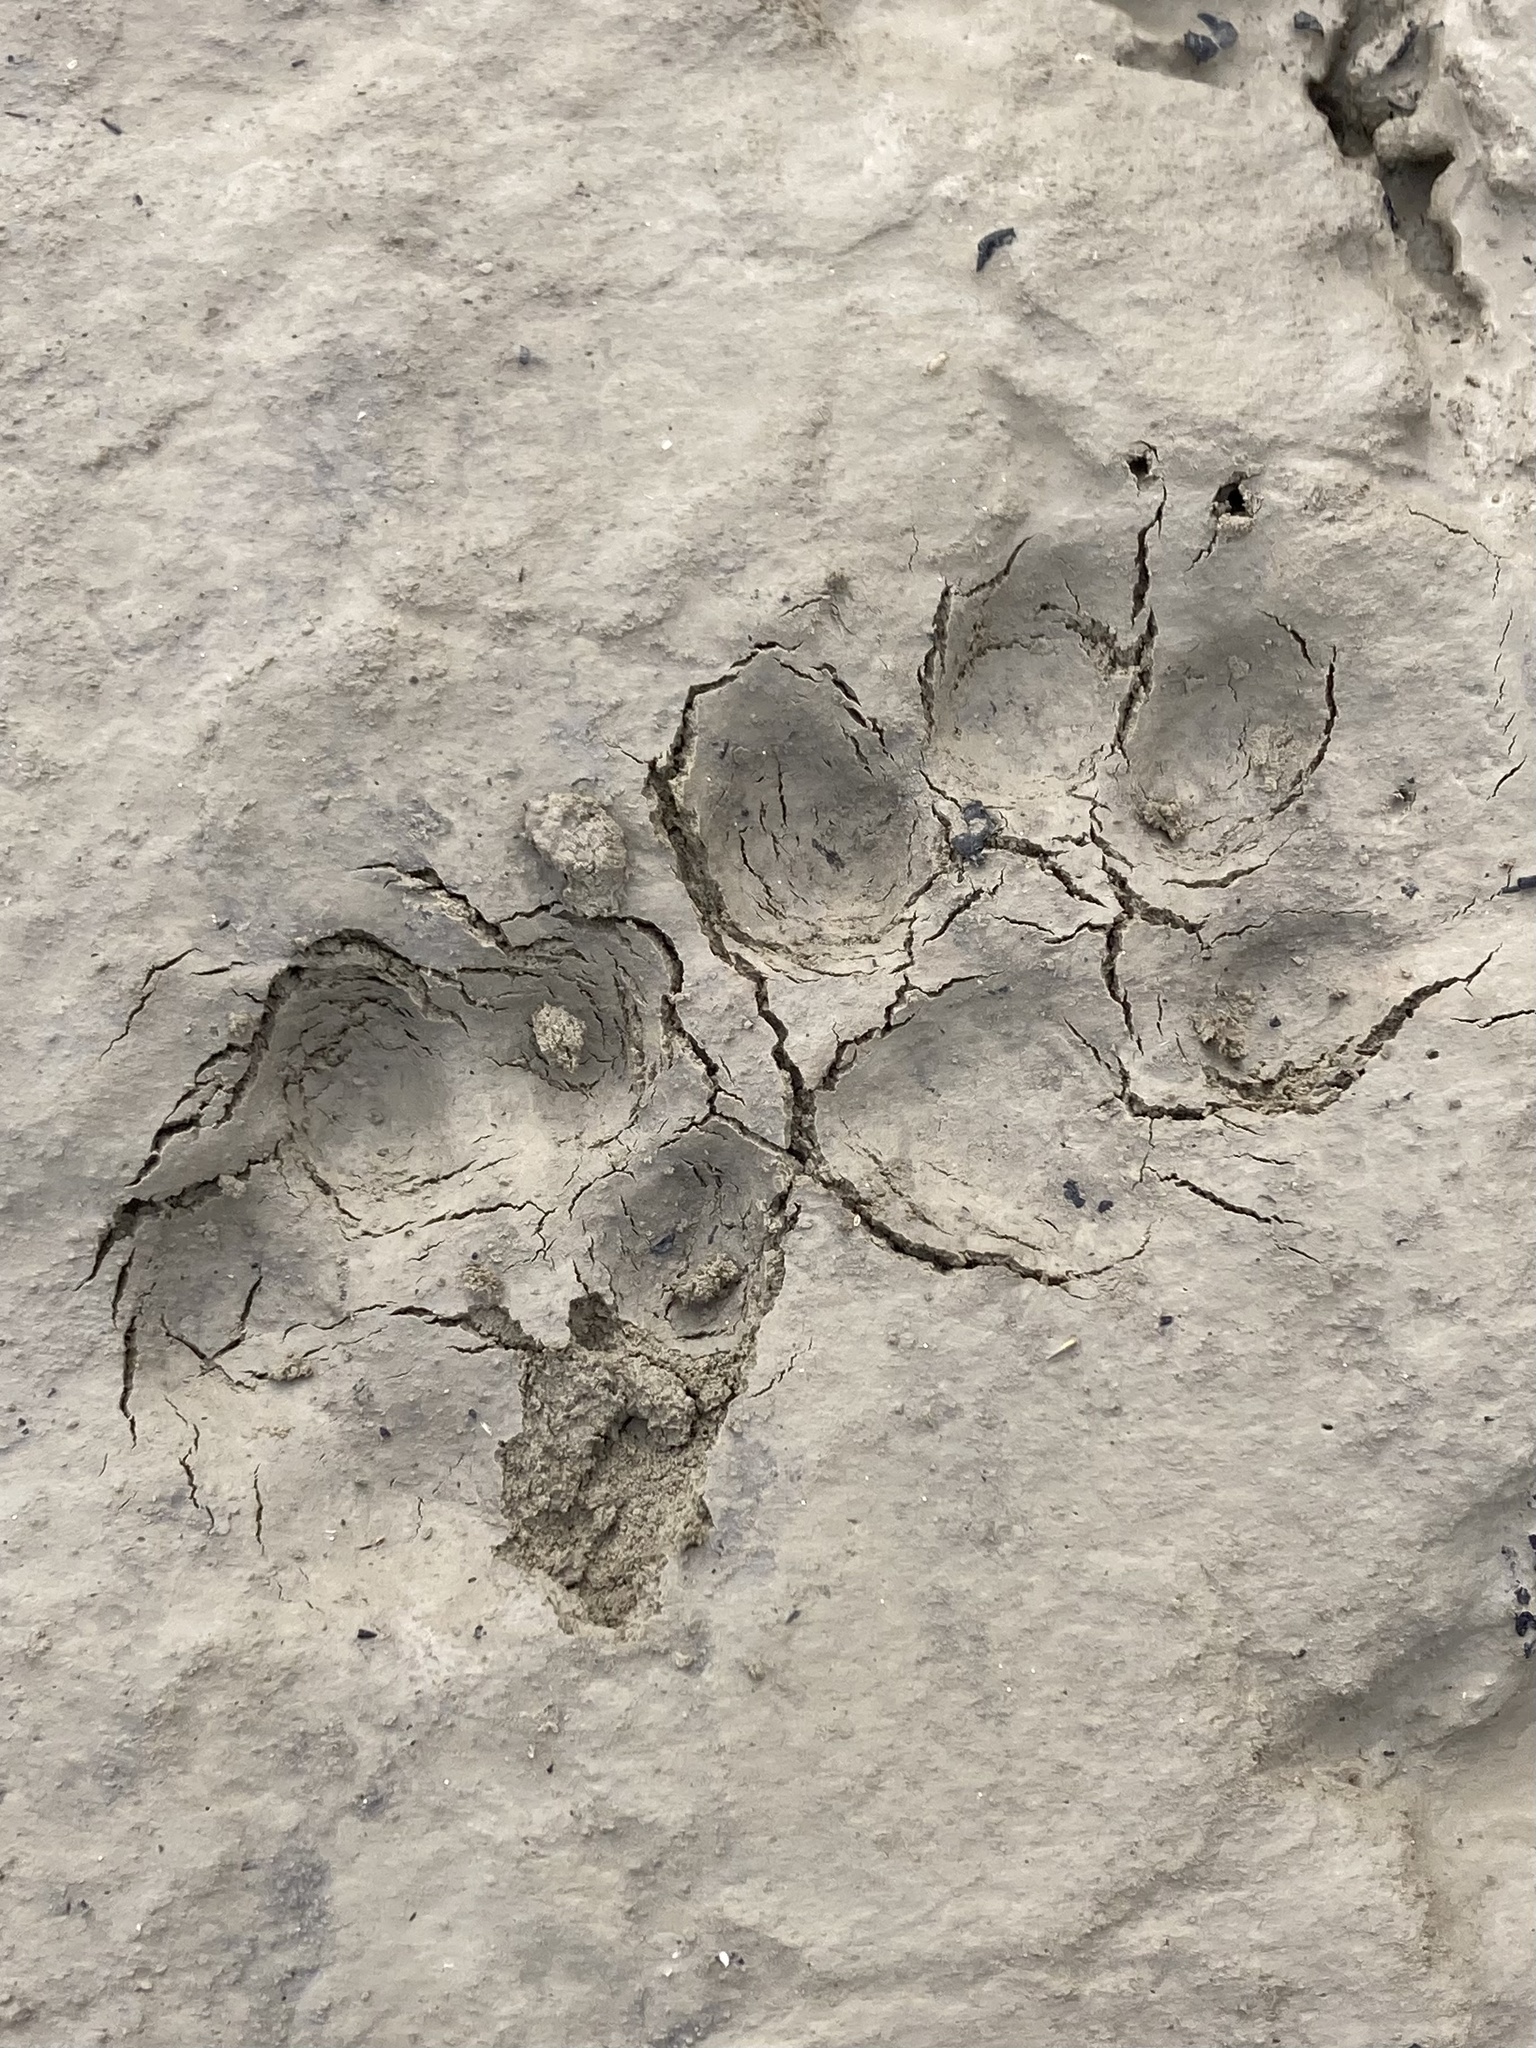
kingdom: Animalia
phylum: Chordata
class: Mammalia
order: Carnivora
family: Canidae
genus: Canis
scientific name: Canis latrans
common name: Coyote
